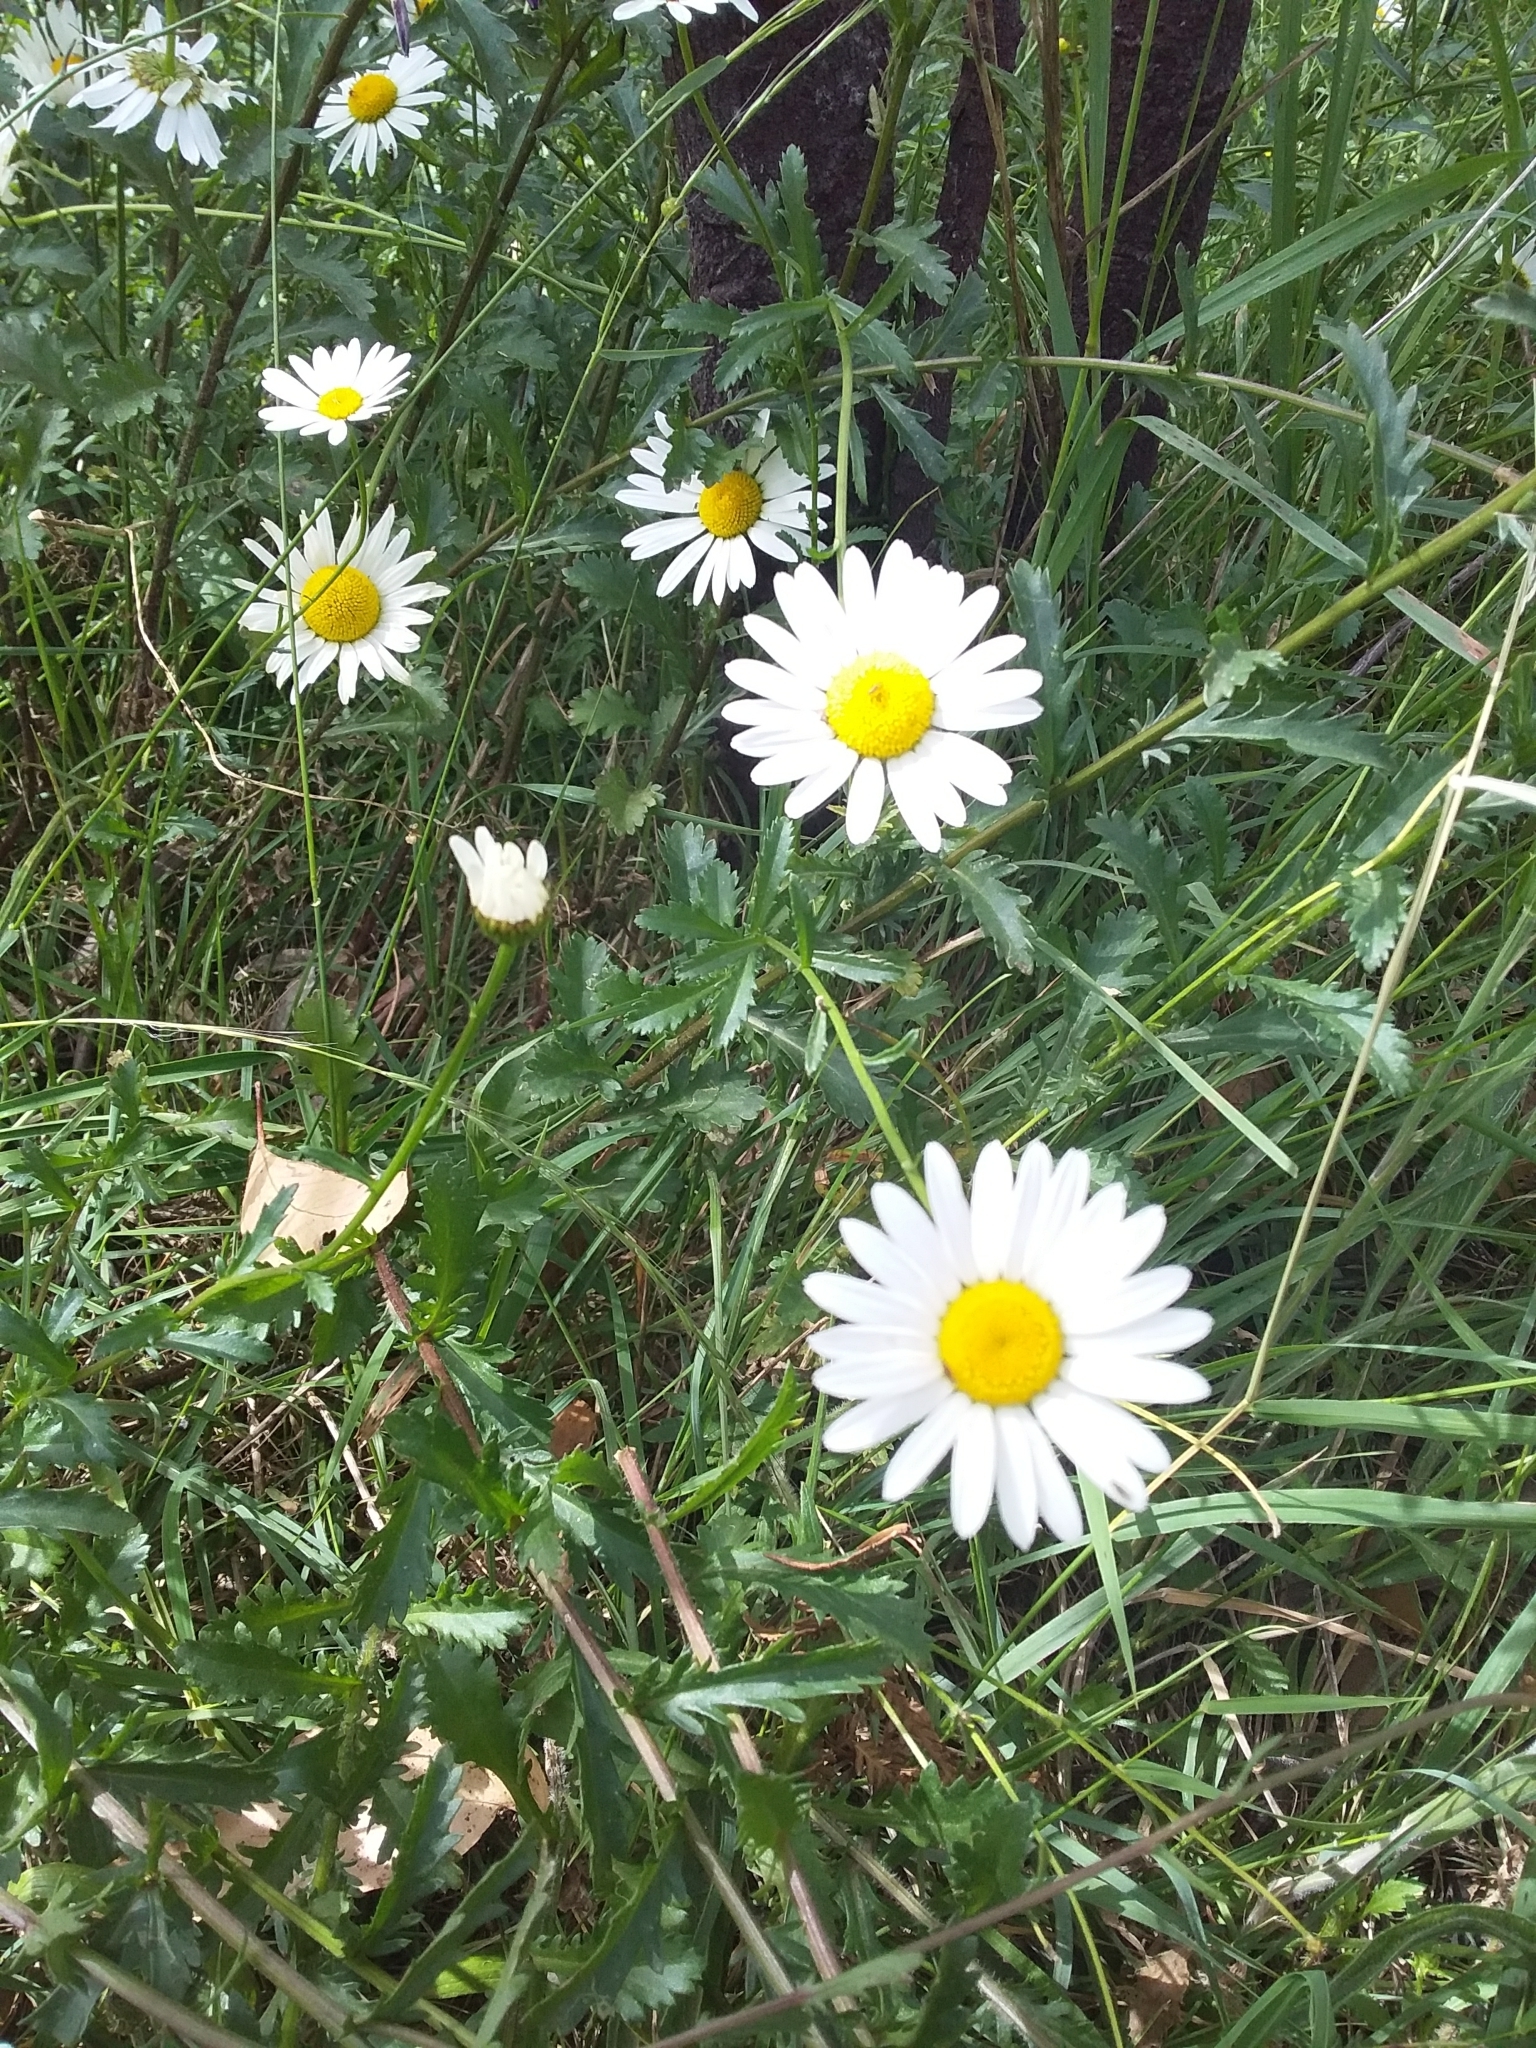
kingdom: Plantae
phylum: Tracheophyta
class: Magnoliopsida
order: Asterales
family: Asteraceae
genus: Leucanthemum
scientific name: Leucanthemum vulgare
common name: Oxeye daisy
